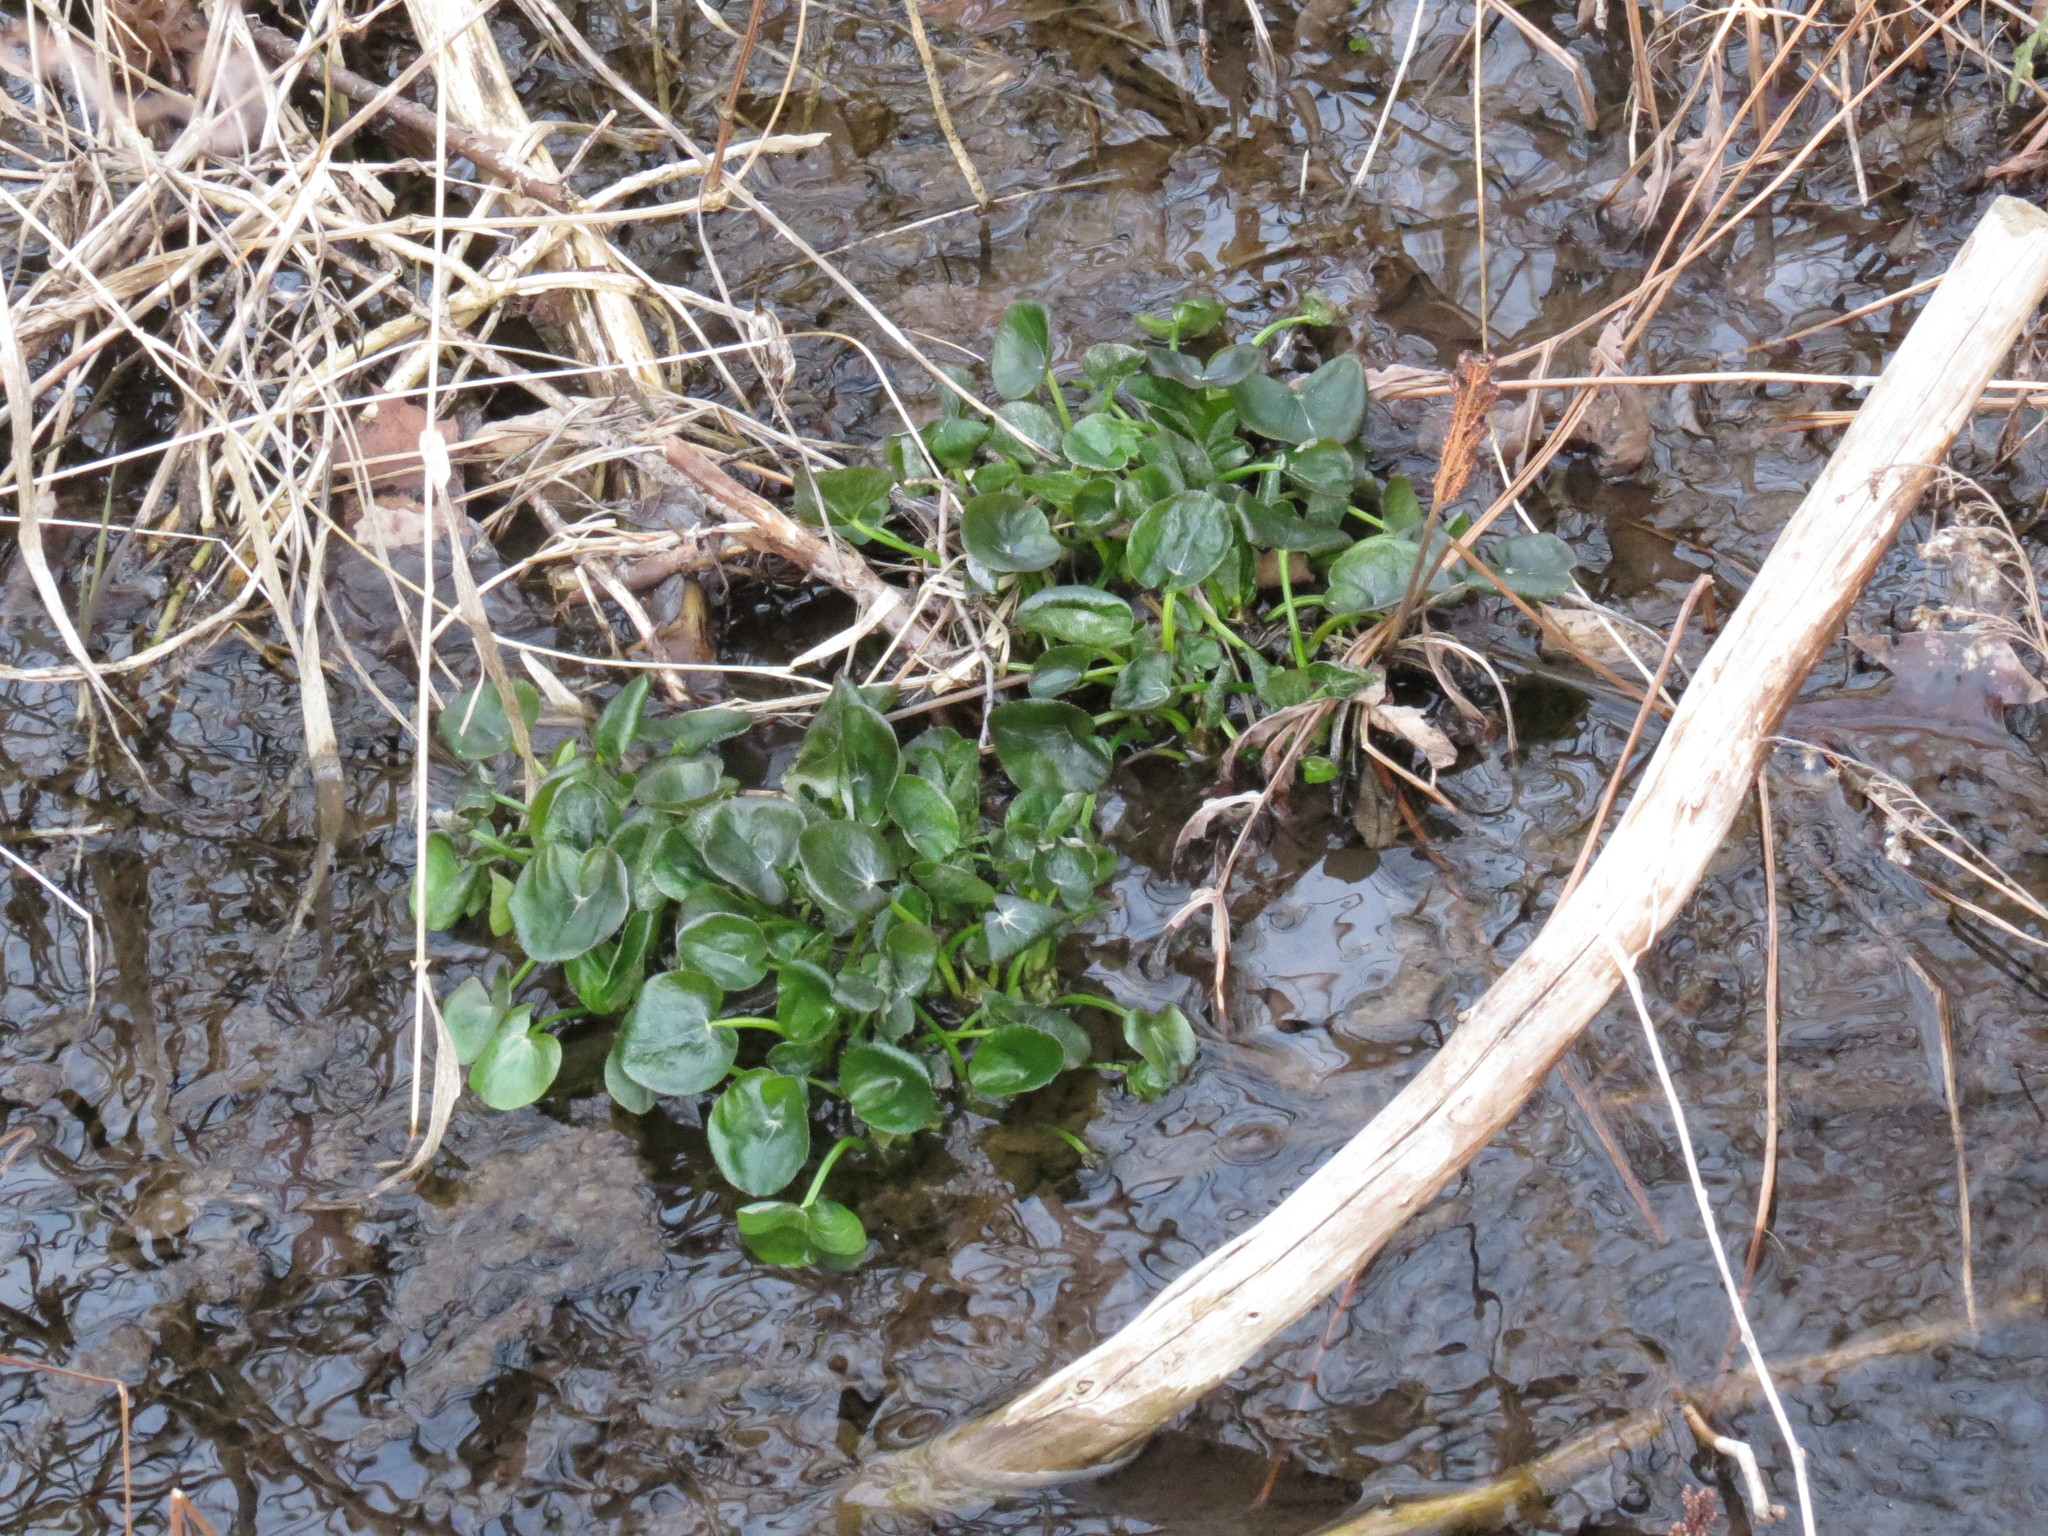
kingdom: Plantae
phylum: Tracheophyta
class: Magnoliopsida
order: Ranunculales
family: Ranunculaceae
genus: Caltha
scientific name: Caltha palustris
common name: Marsh marigold
